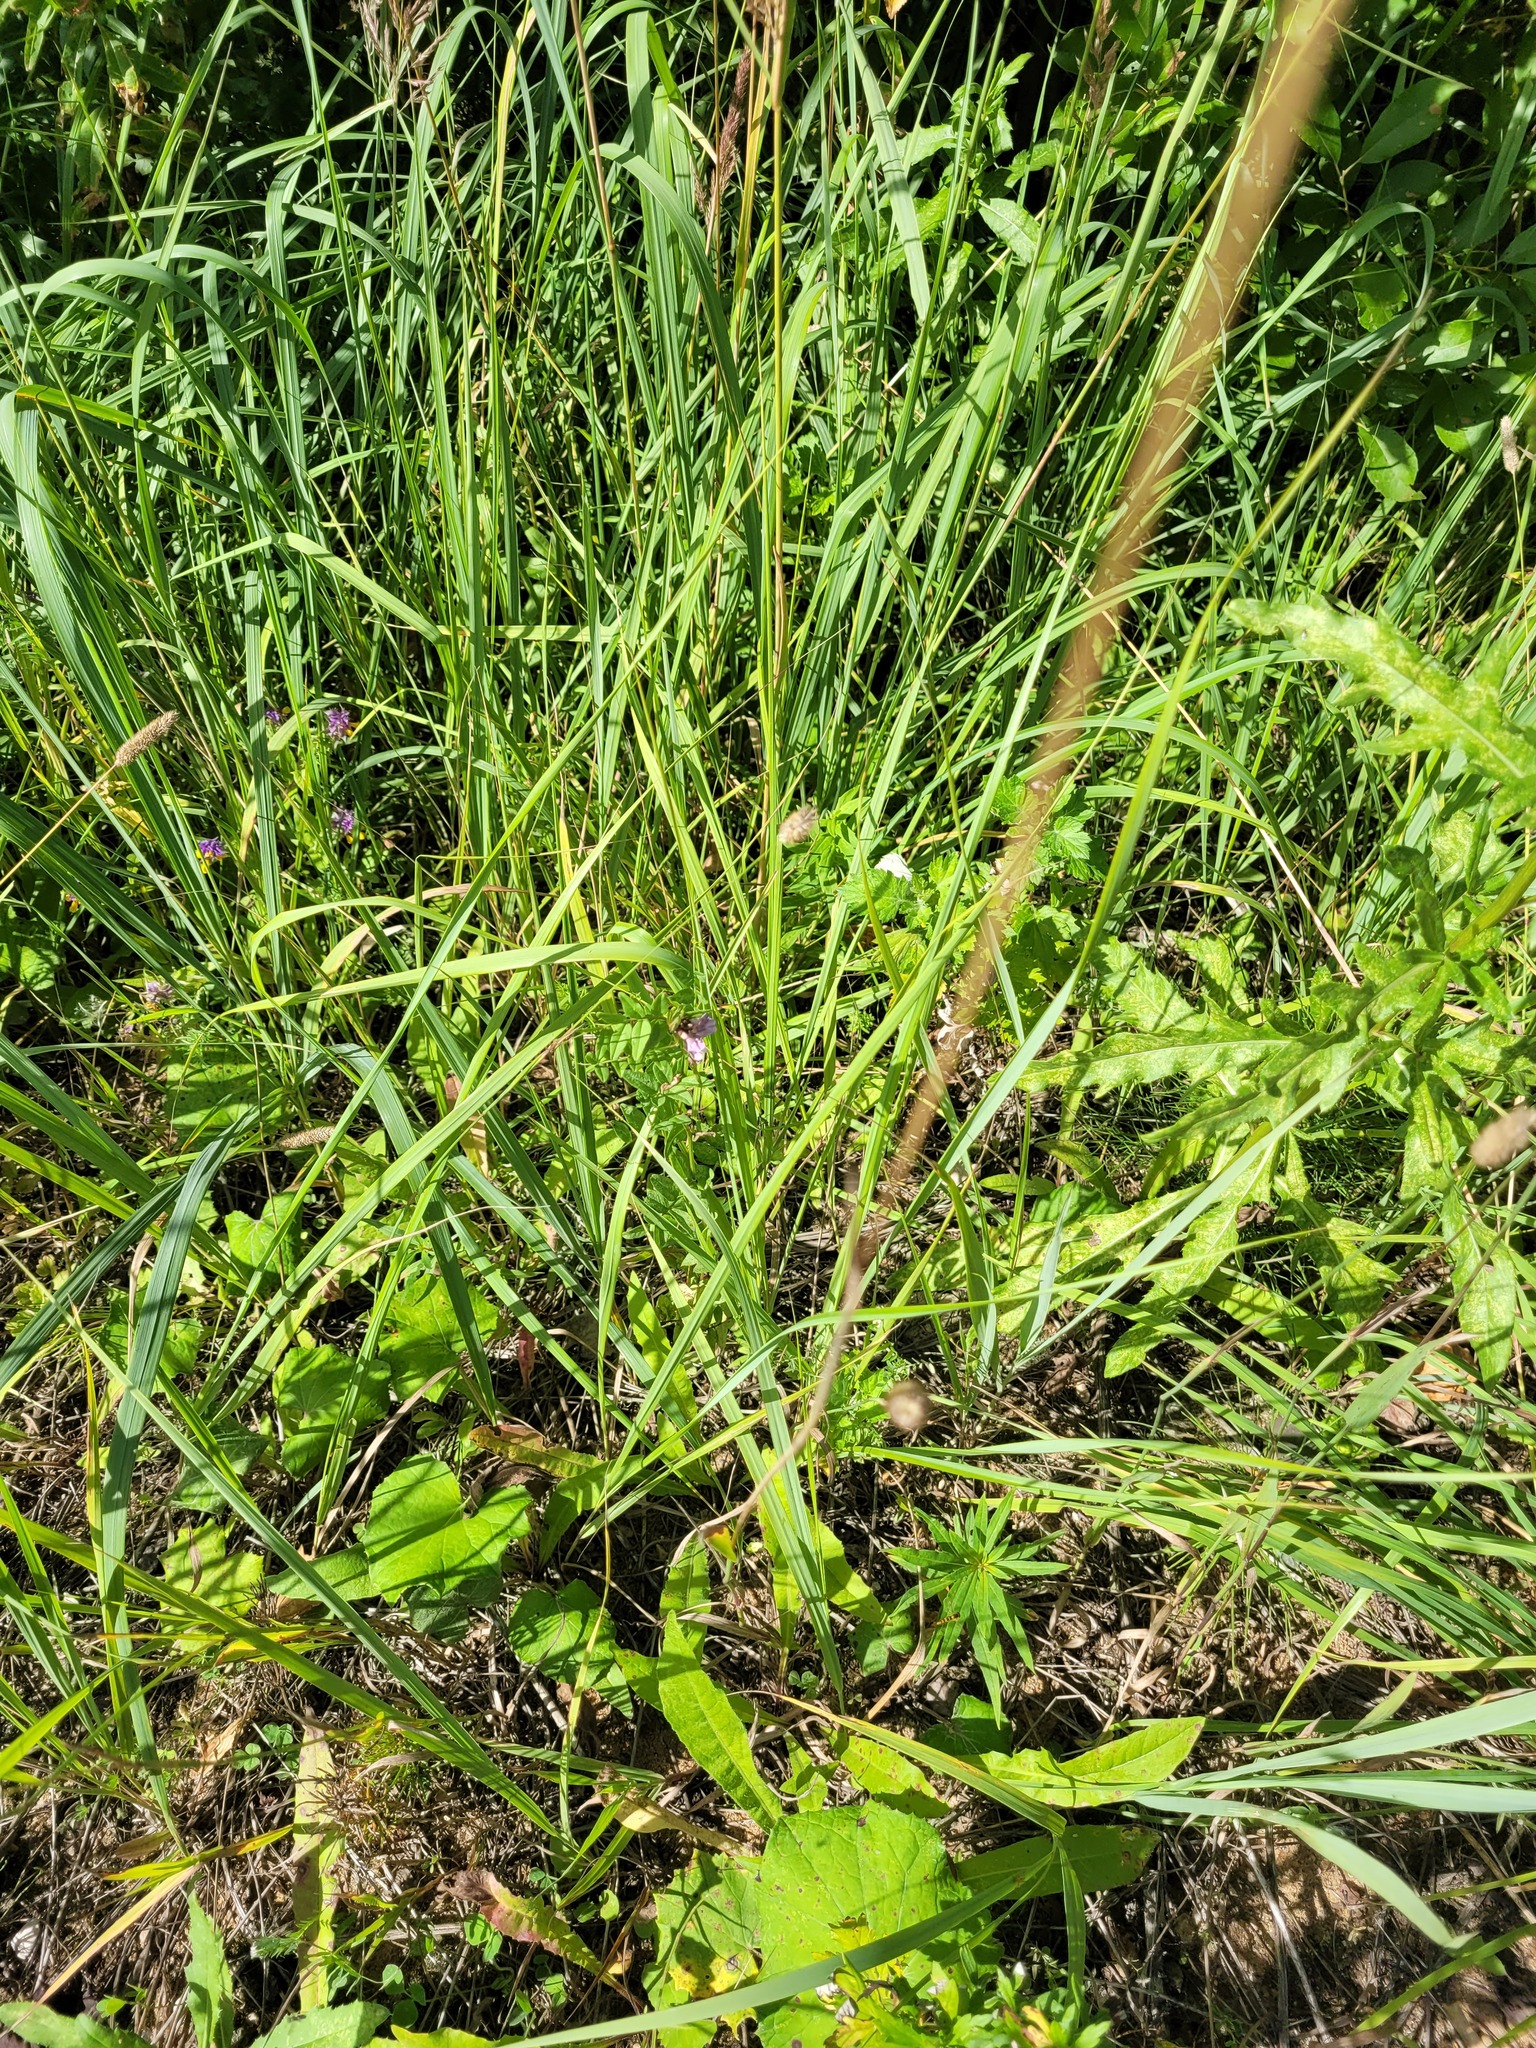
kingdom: Plantae
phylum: Tracheophyta
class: Magnoliopsida
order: Fabales
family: Fabaceae
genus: Vicia
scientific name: Vicia sepium
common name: Bush vetch
